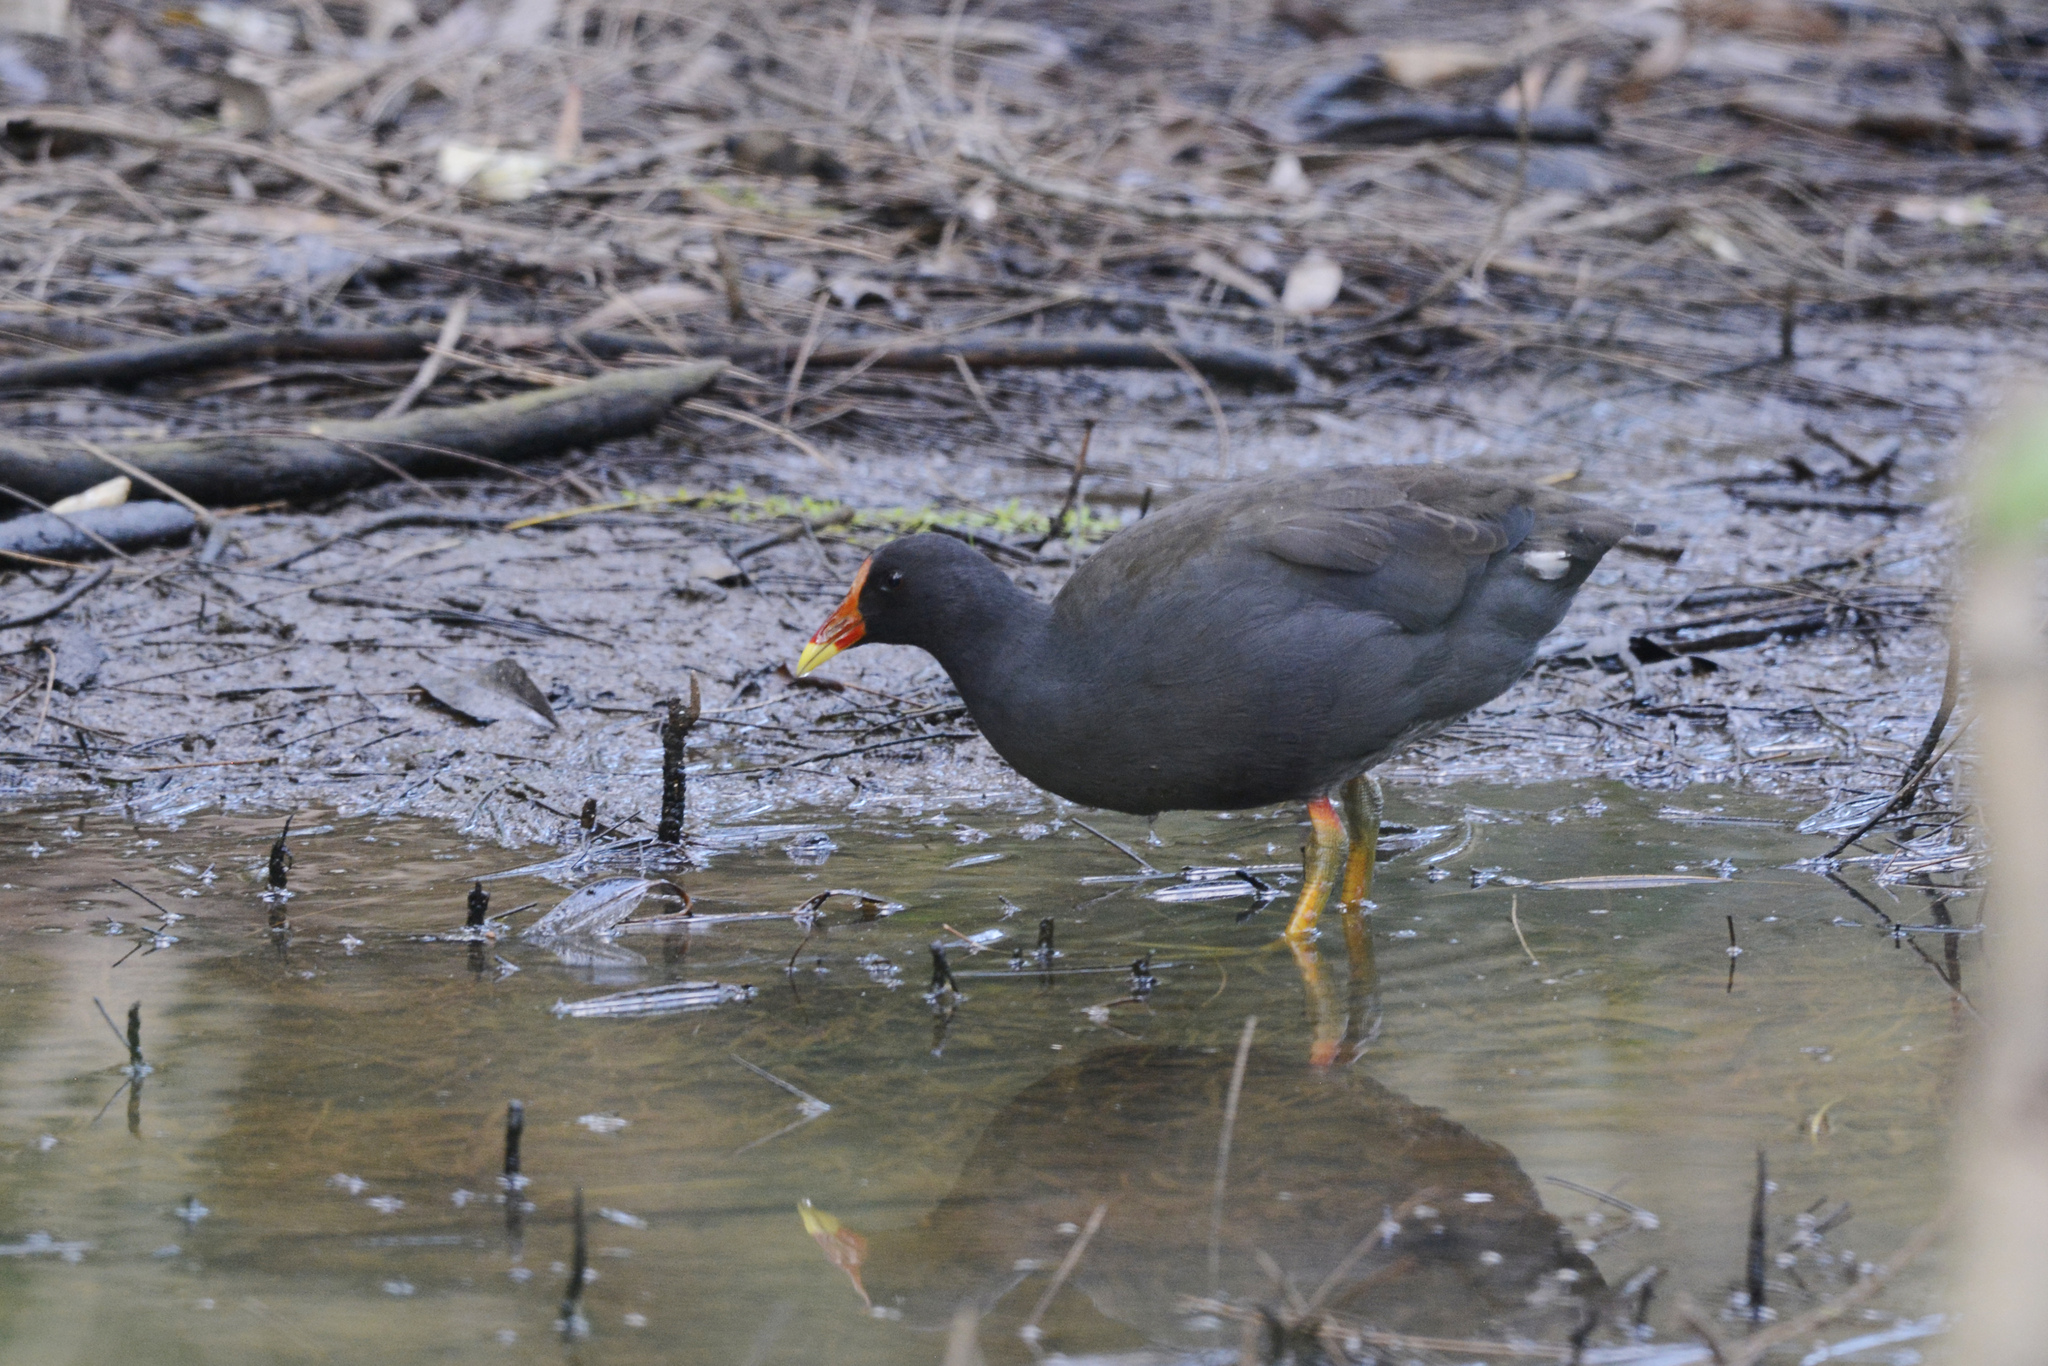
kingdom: Animalia
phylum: Chordata
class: Aves
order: Gruiformes
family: Rallidae
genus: Gallinula
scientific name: Gallinula tenebrosa
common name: Dusky moorhen
